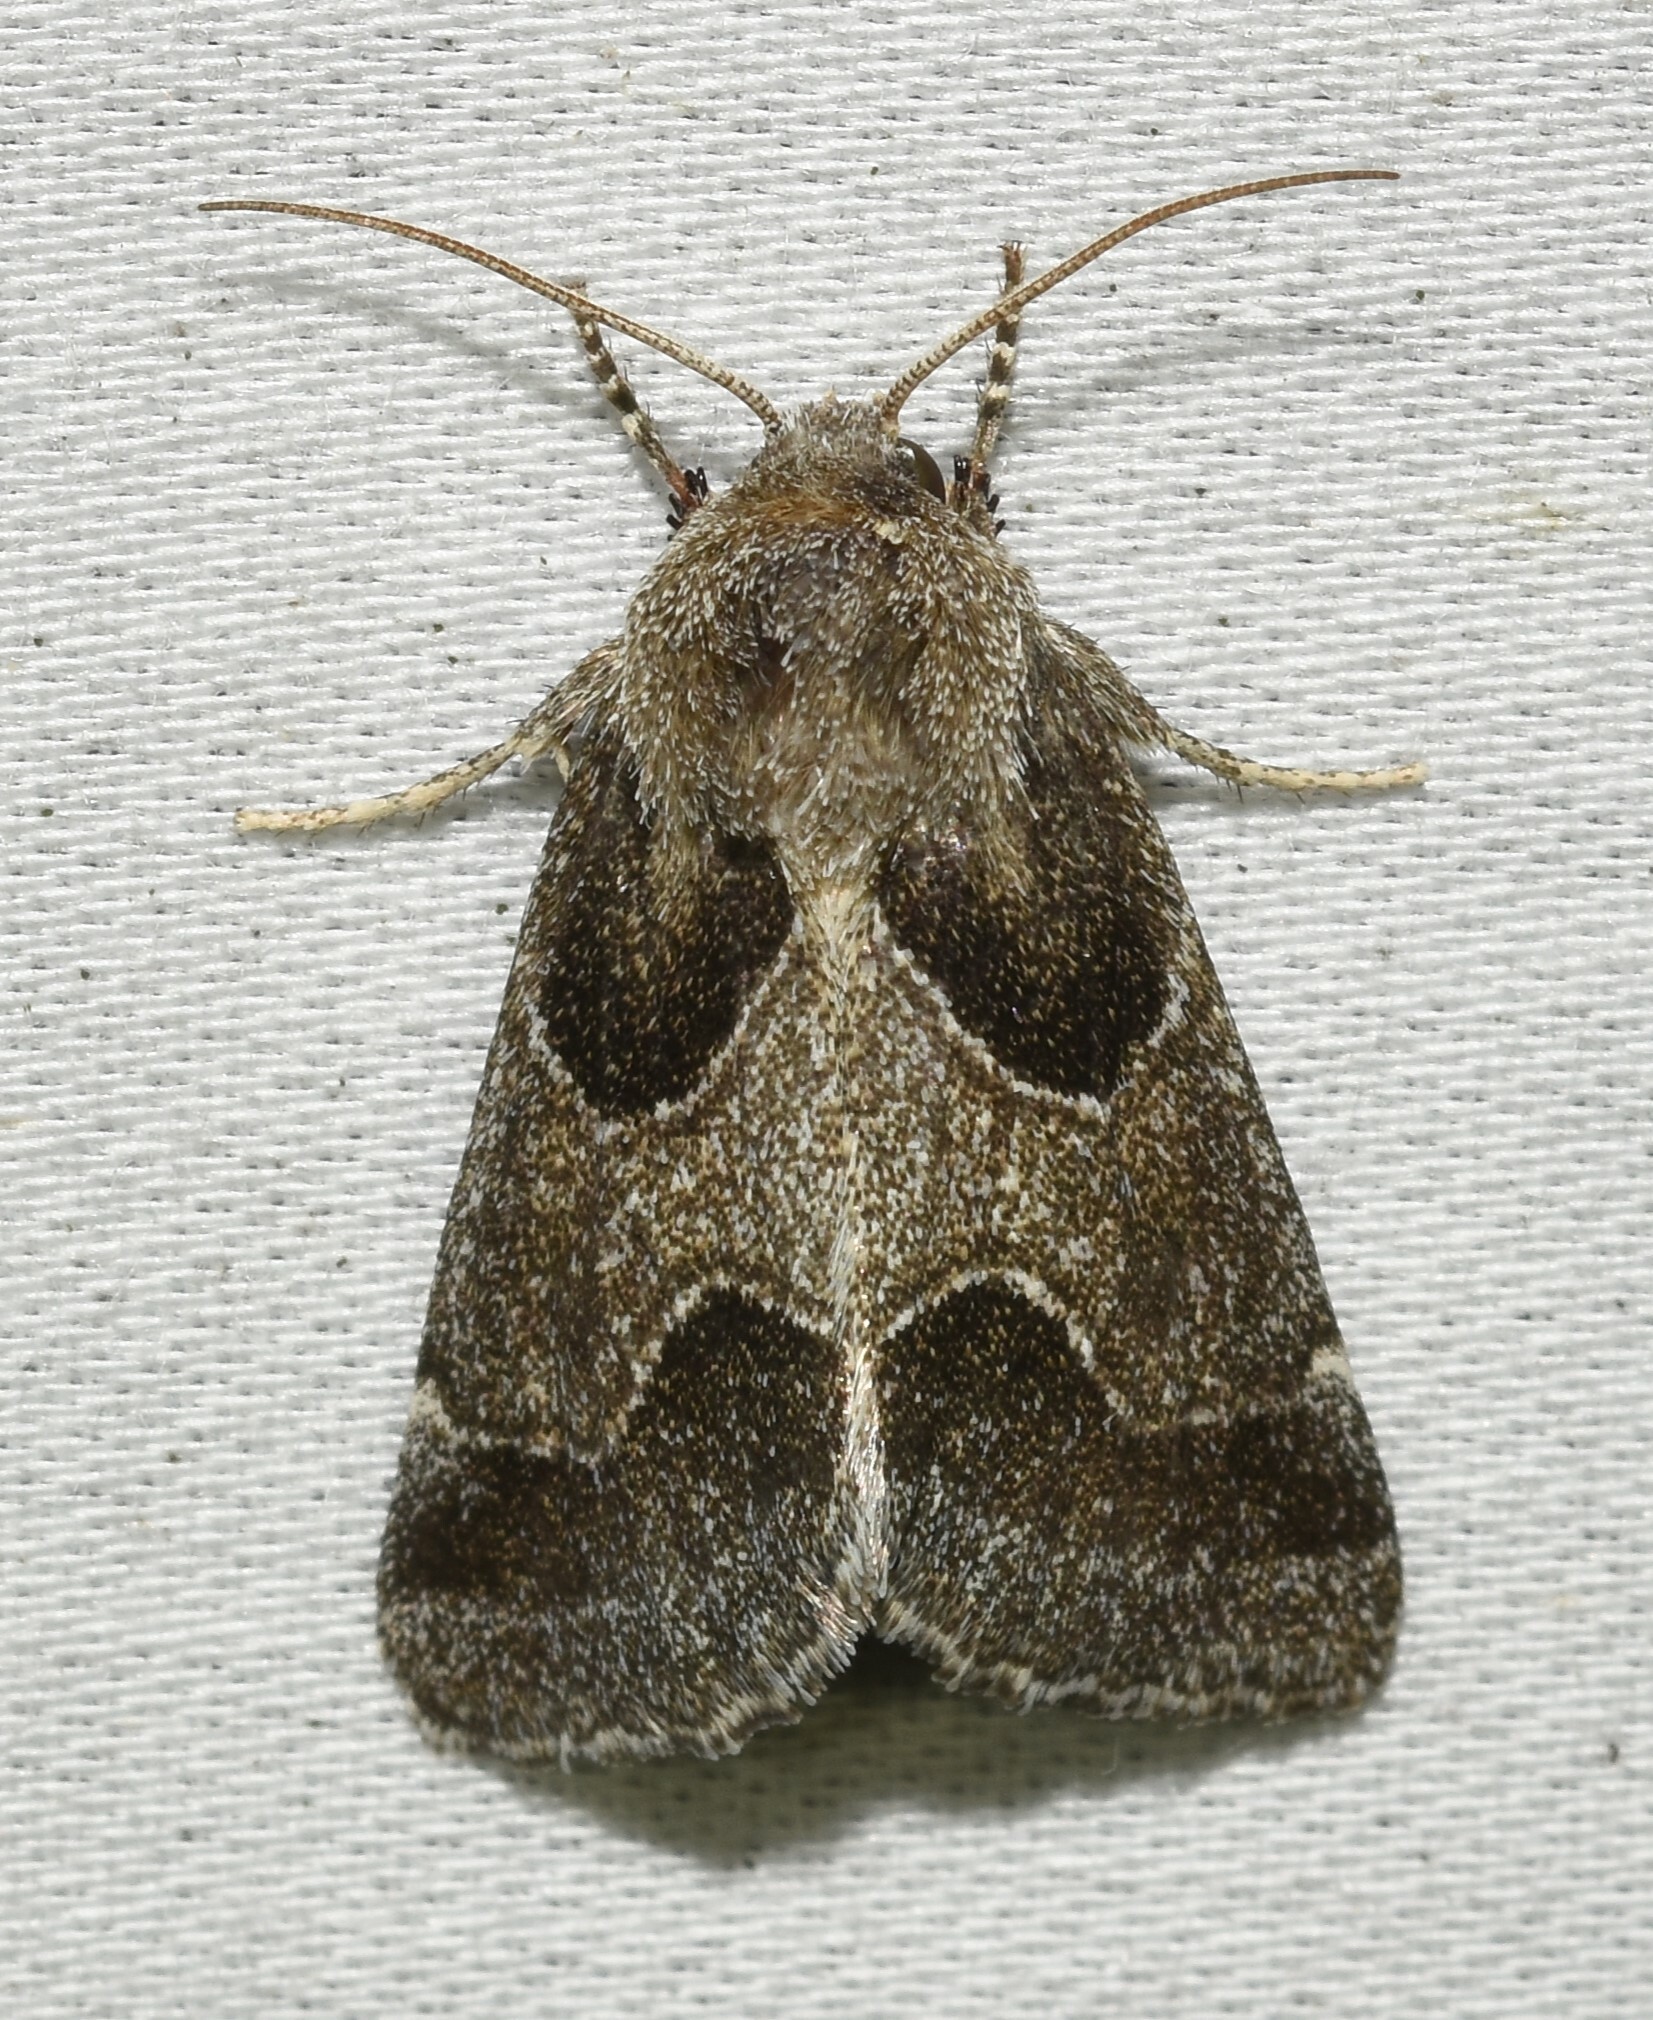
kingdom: Animalia
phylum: Arthropoda
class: Insecta
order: Lepidoptera
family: Noctuidae
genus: Schinia
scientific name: Schinia rivulosa
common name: Scarce meal-moth
